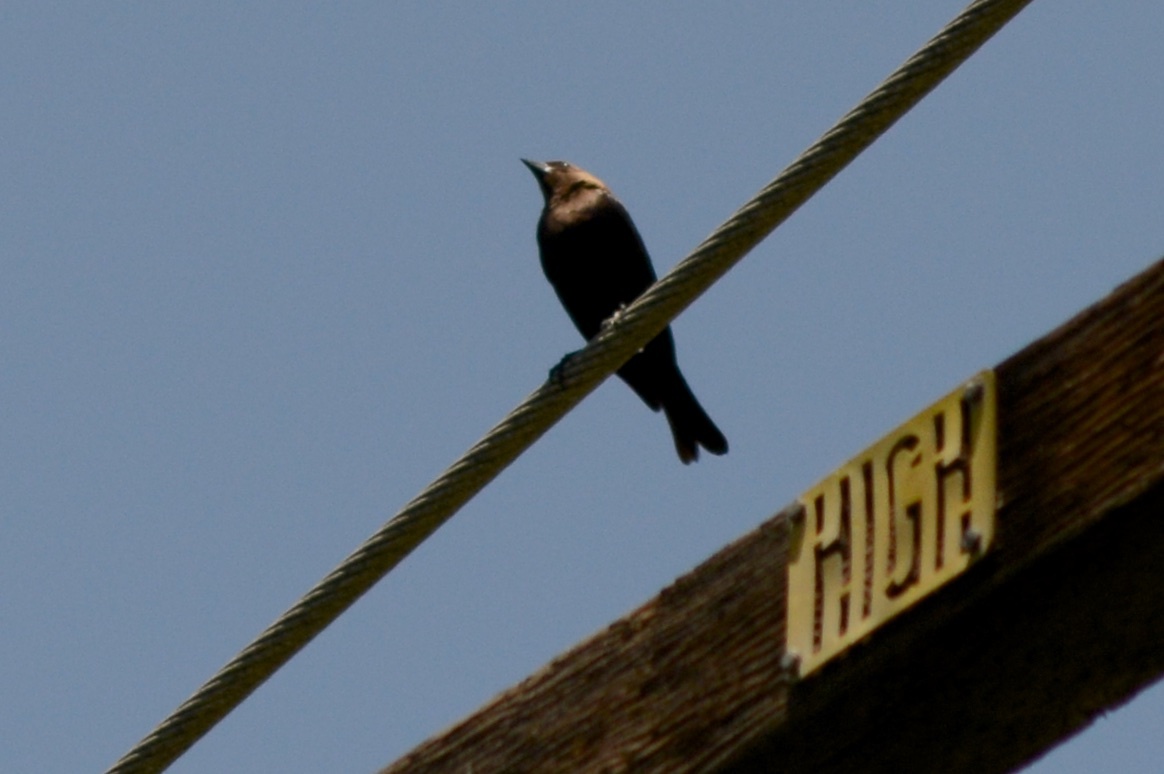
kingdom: Animalia
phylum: Chordata
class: Aves
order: Passeriformes
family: Icteridae
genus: Molothrus
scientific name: Molothrus ater
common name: Brown-headed cowbird
